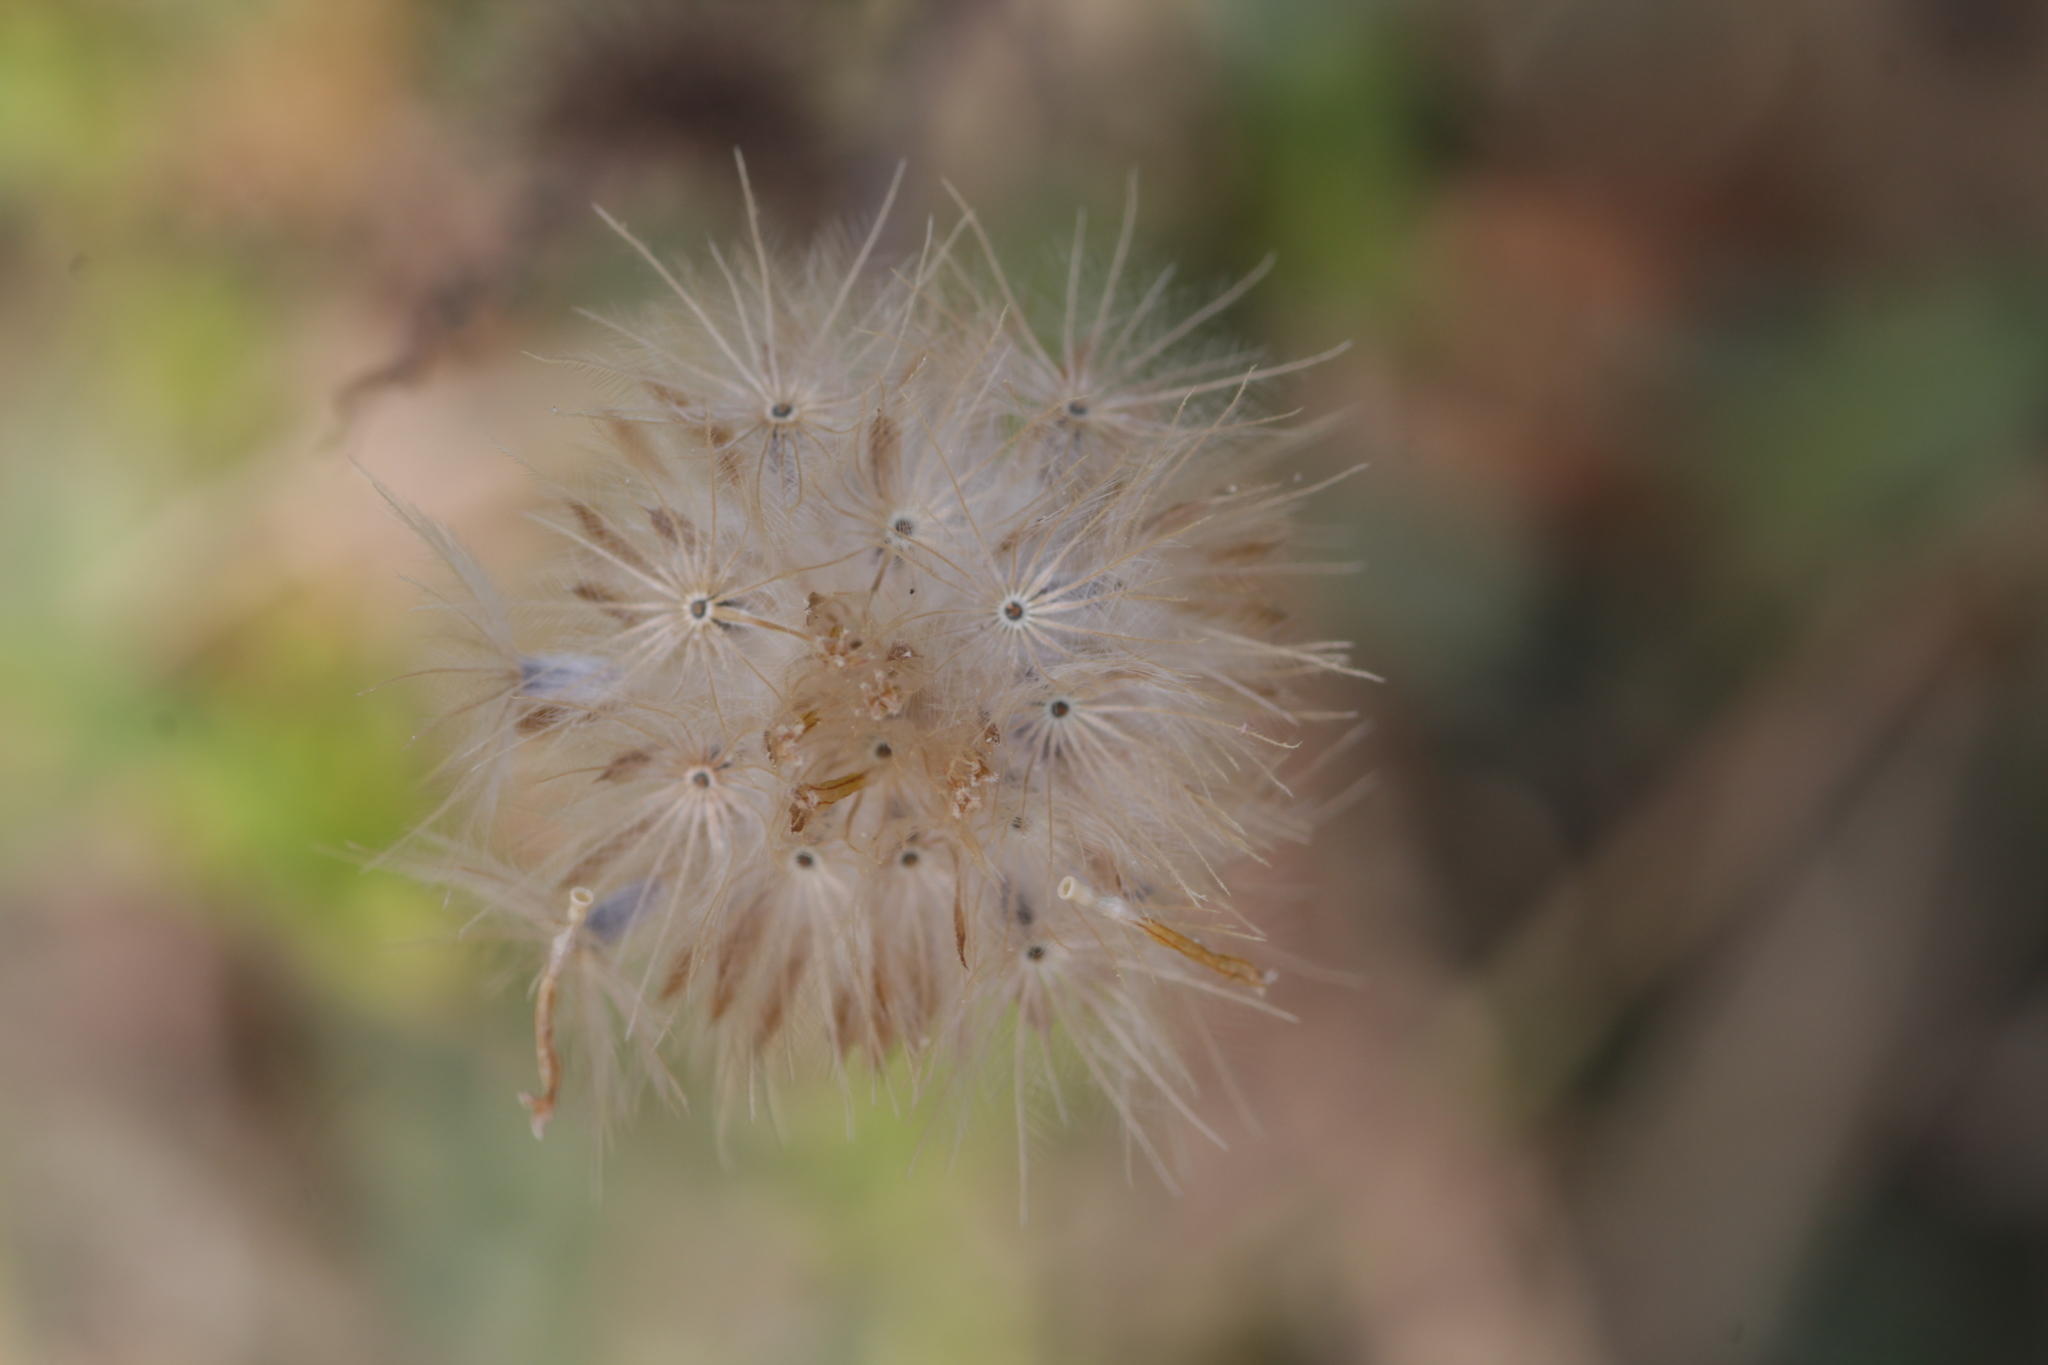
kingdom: Plantae
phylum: Tracheophyta
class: Magnoliopsida
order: Asterales
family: Asteraceae
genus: Tridax
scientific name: Tridax procumbens
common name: Coatbuttons
